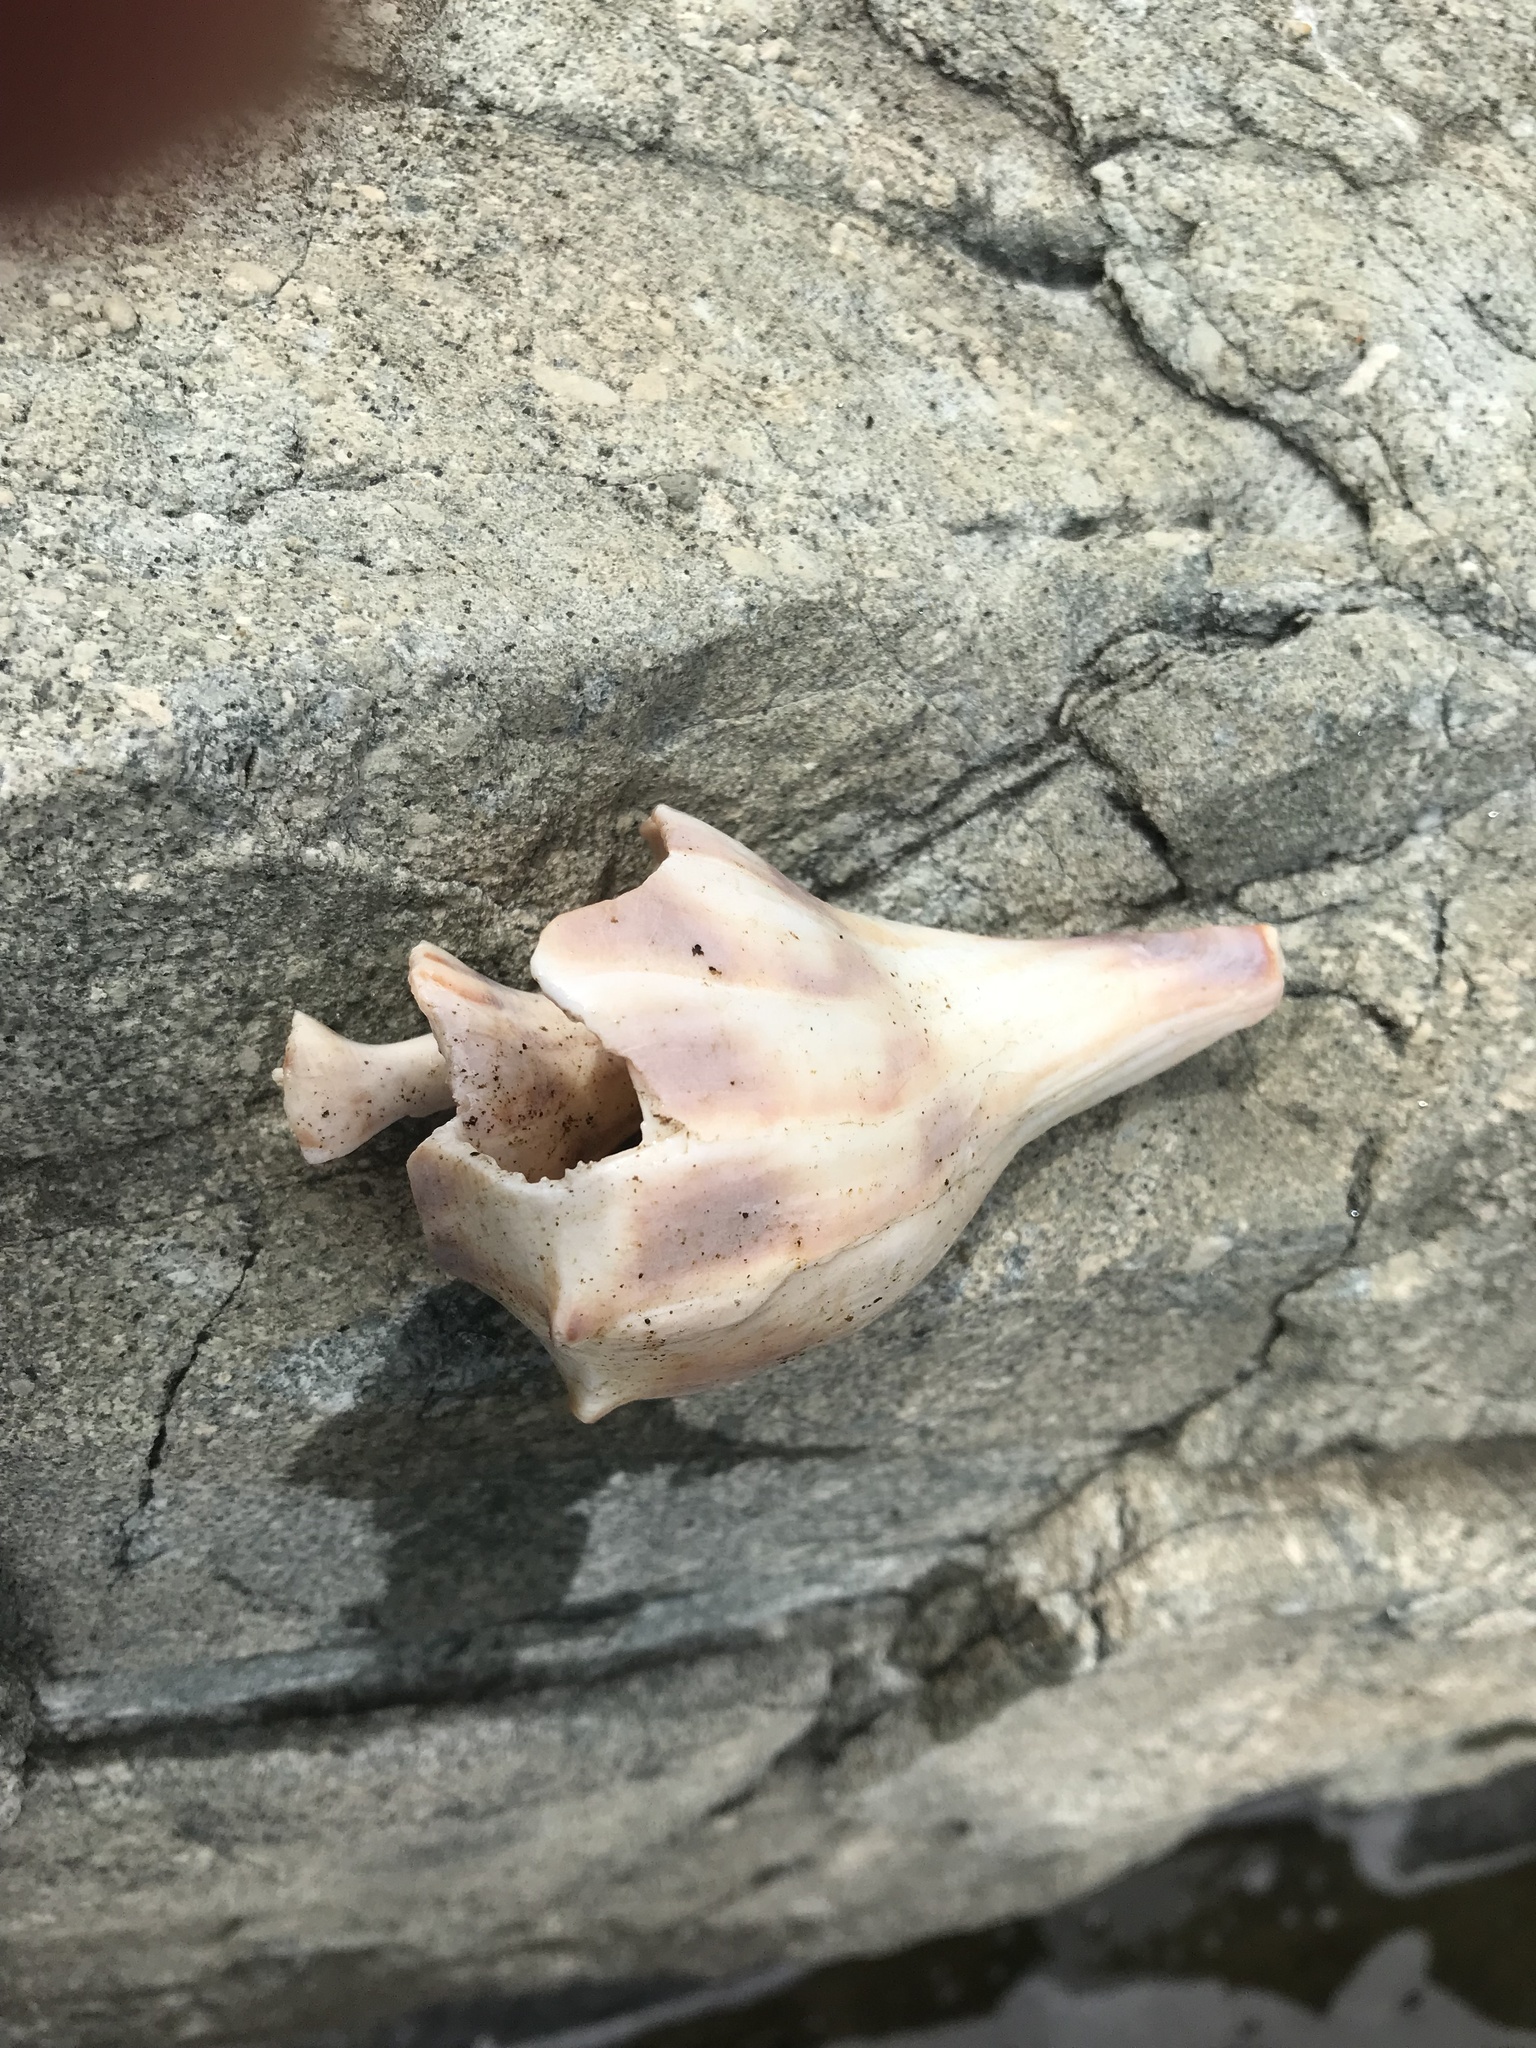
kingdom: Animalia
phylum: Mollusca
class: Gastropoda
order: Neogastropoda
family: Busyconidae
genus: Busycon
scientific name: Busycon carica
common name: Knobbed whelk
